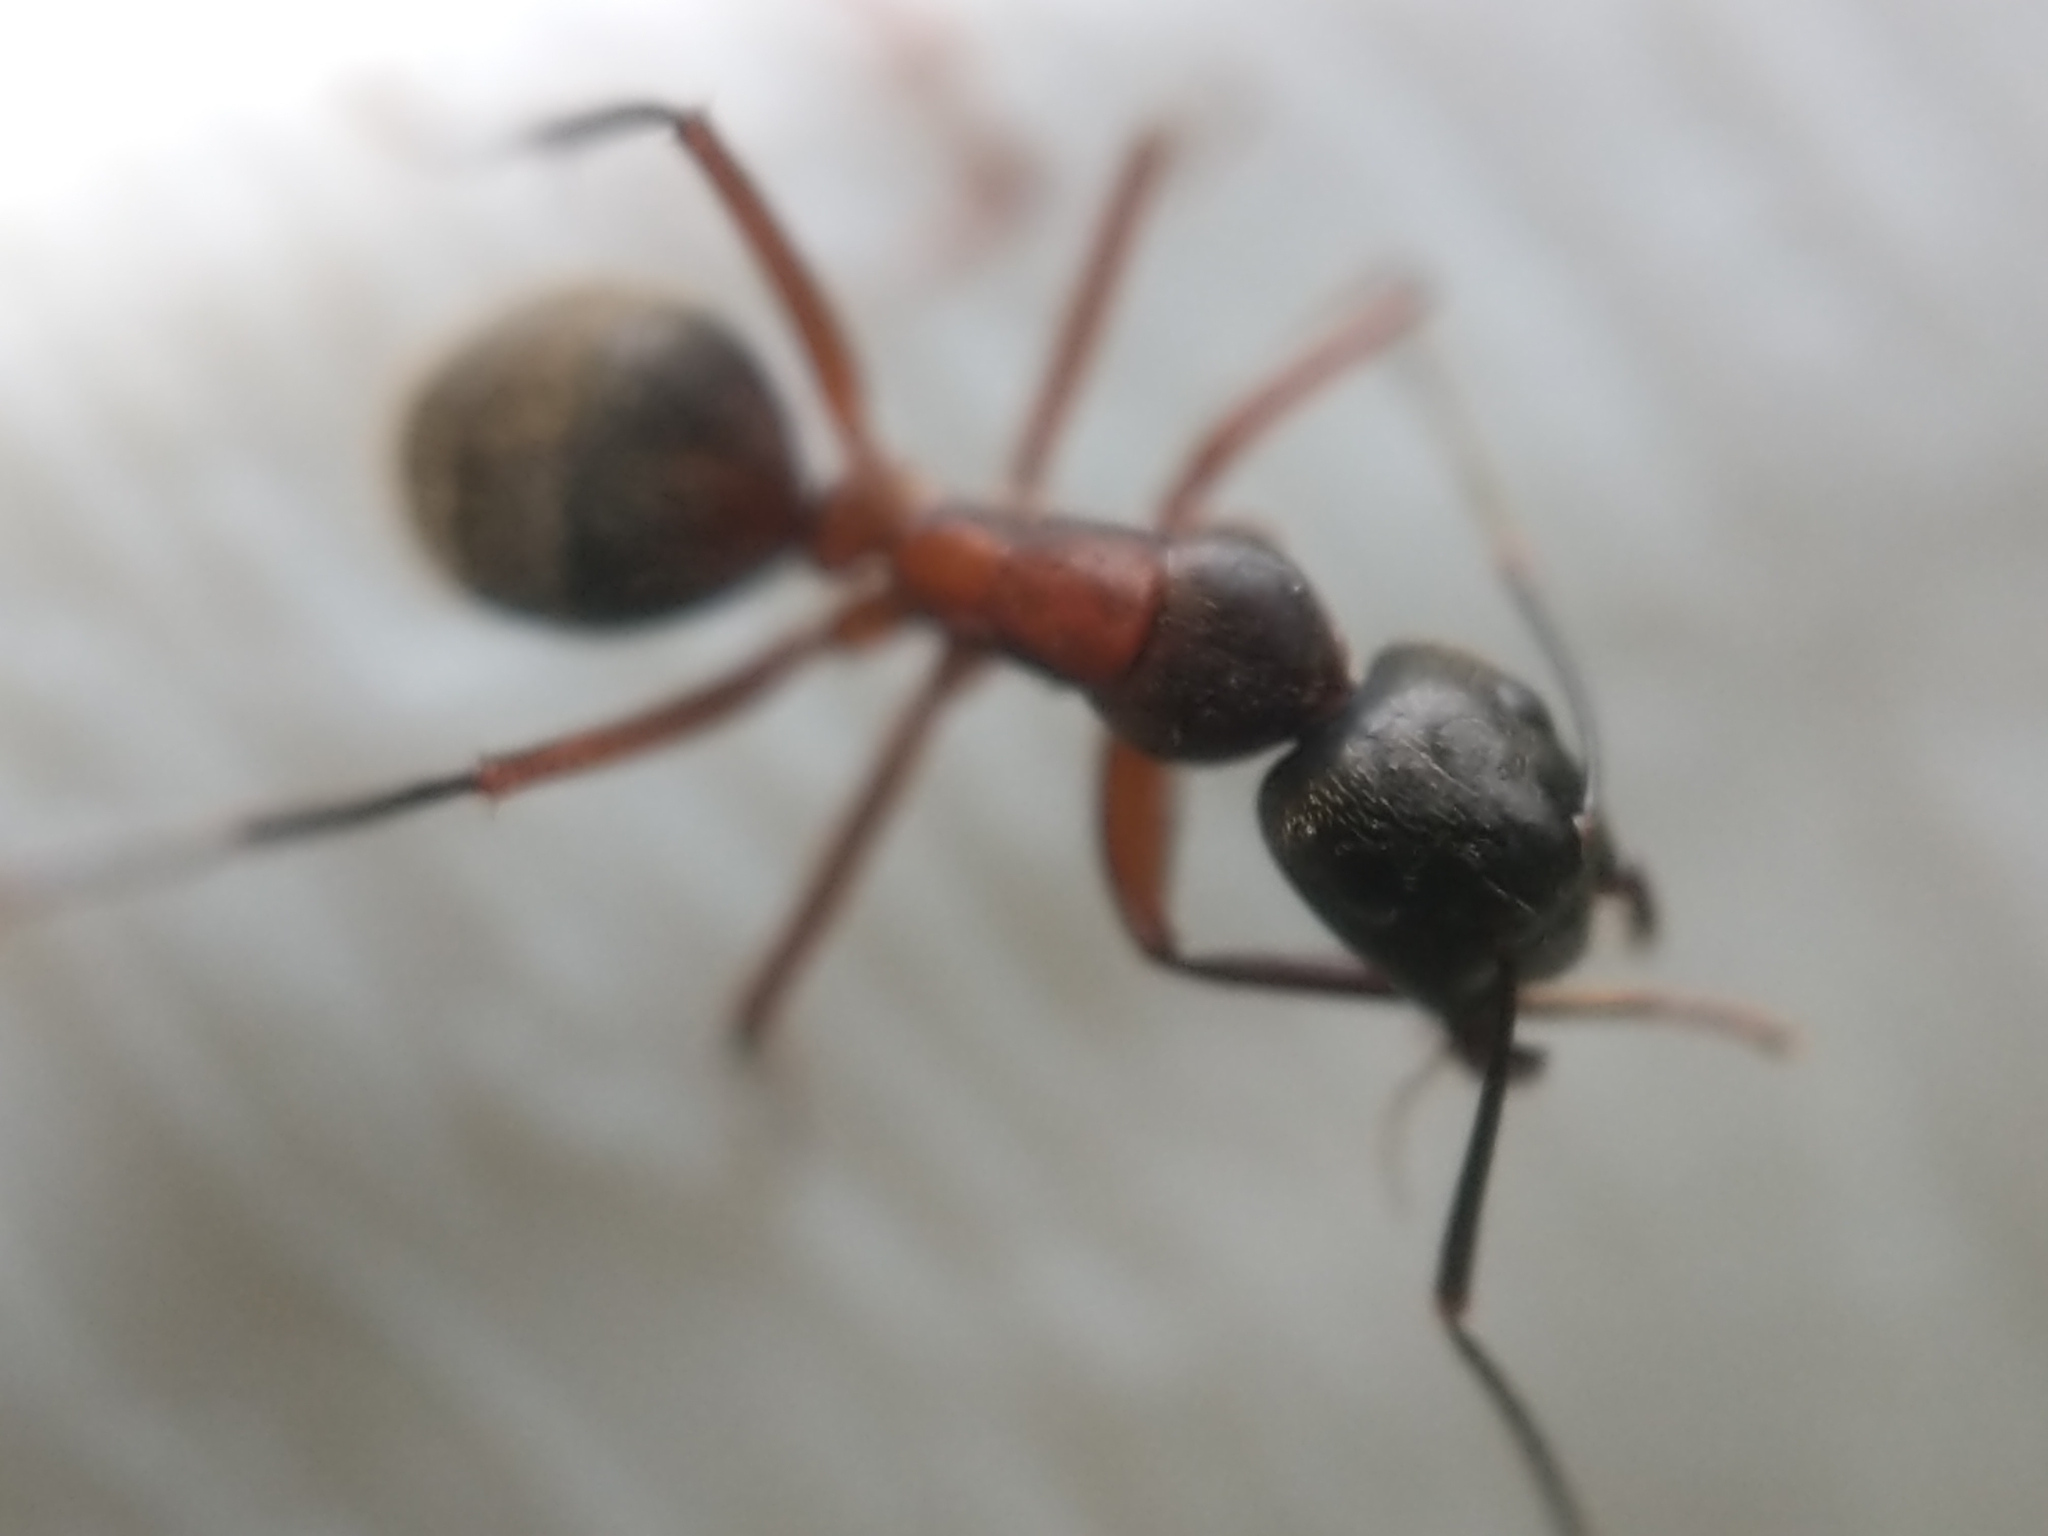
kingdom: Animalia
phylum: Arthropoda
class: Insecta
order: Hymenoptera
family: Formicidae
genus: Camponotus
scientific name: Camponotus chromaiodes
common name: Red carpenter ant
